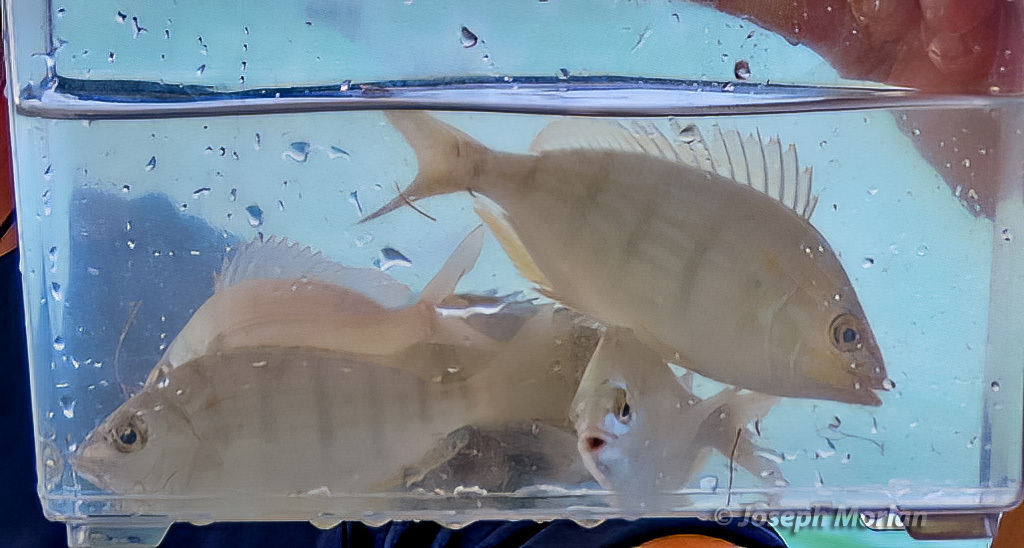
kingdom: Animalia
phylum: Chordata
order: Perciformes
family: Sparidae
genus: Lagodon
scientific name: Lagodon rhomboides
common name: Pinfish
